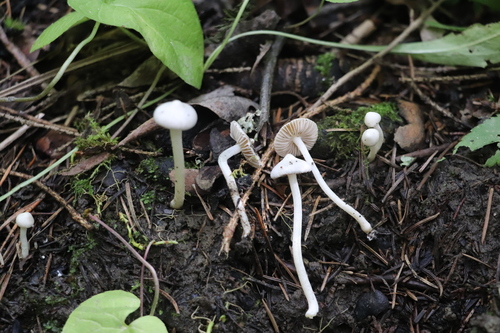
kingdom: Fungi
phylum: Basidiomycota
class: Agaricomycetes
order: Agaricales
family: Inocybaceae
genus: Inocybe
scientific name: Inocybe geophylla
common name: White fibrecap
